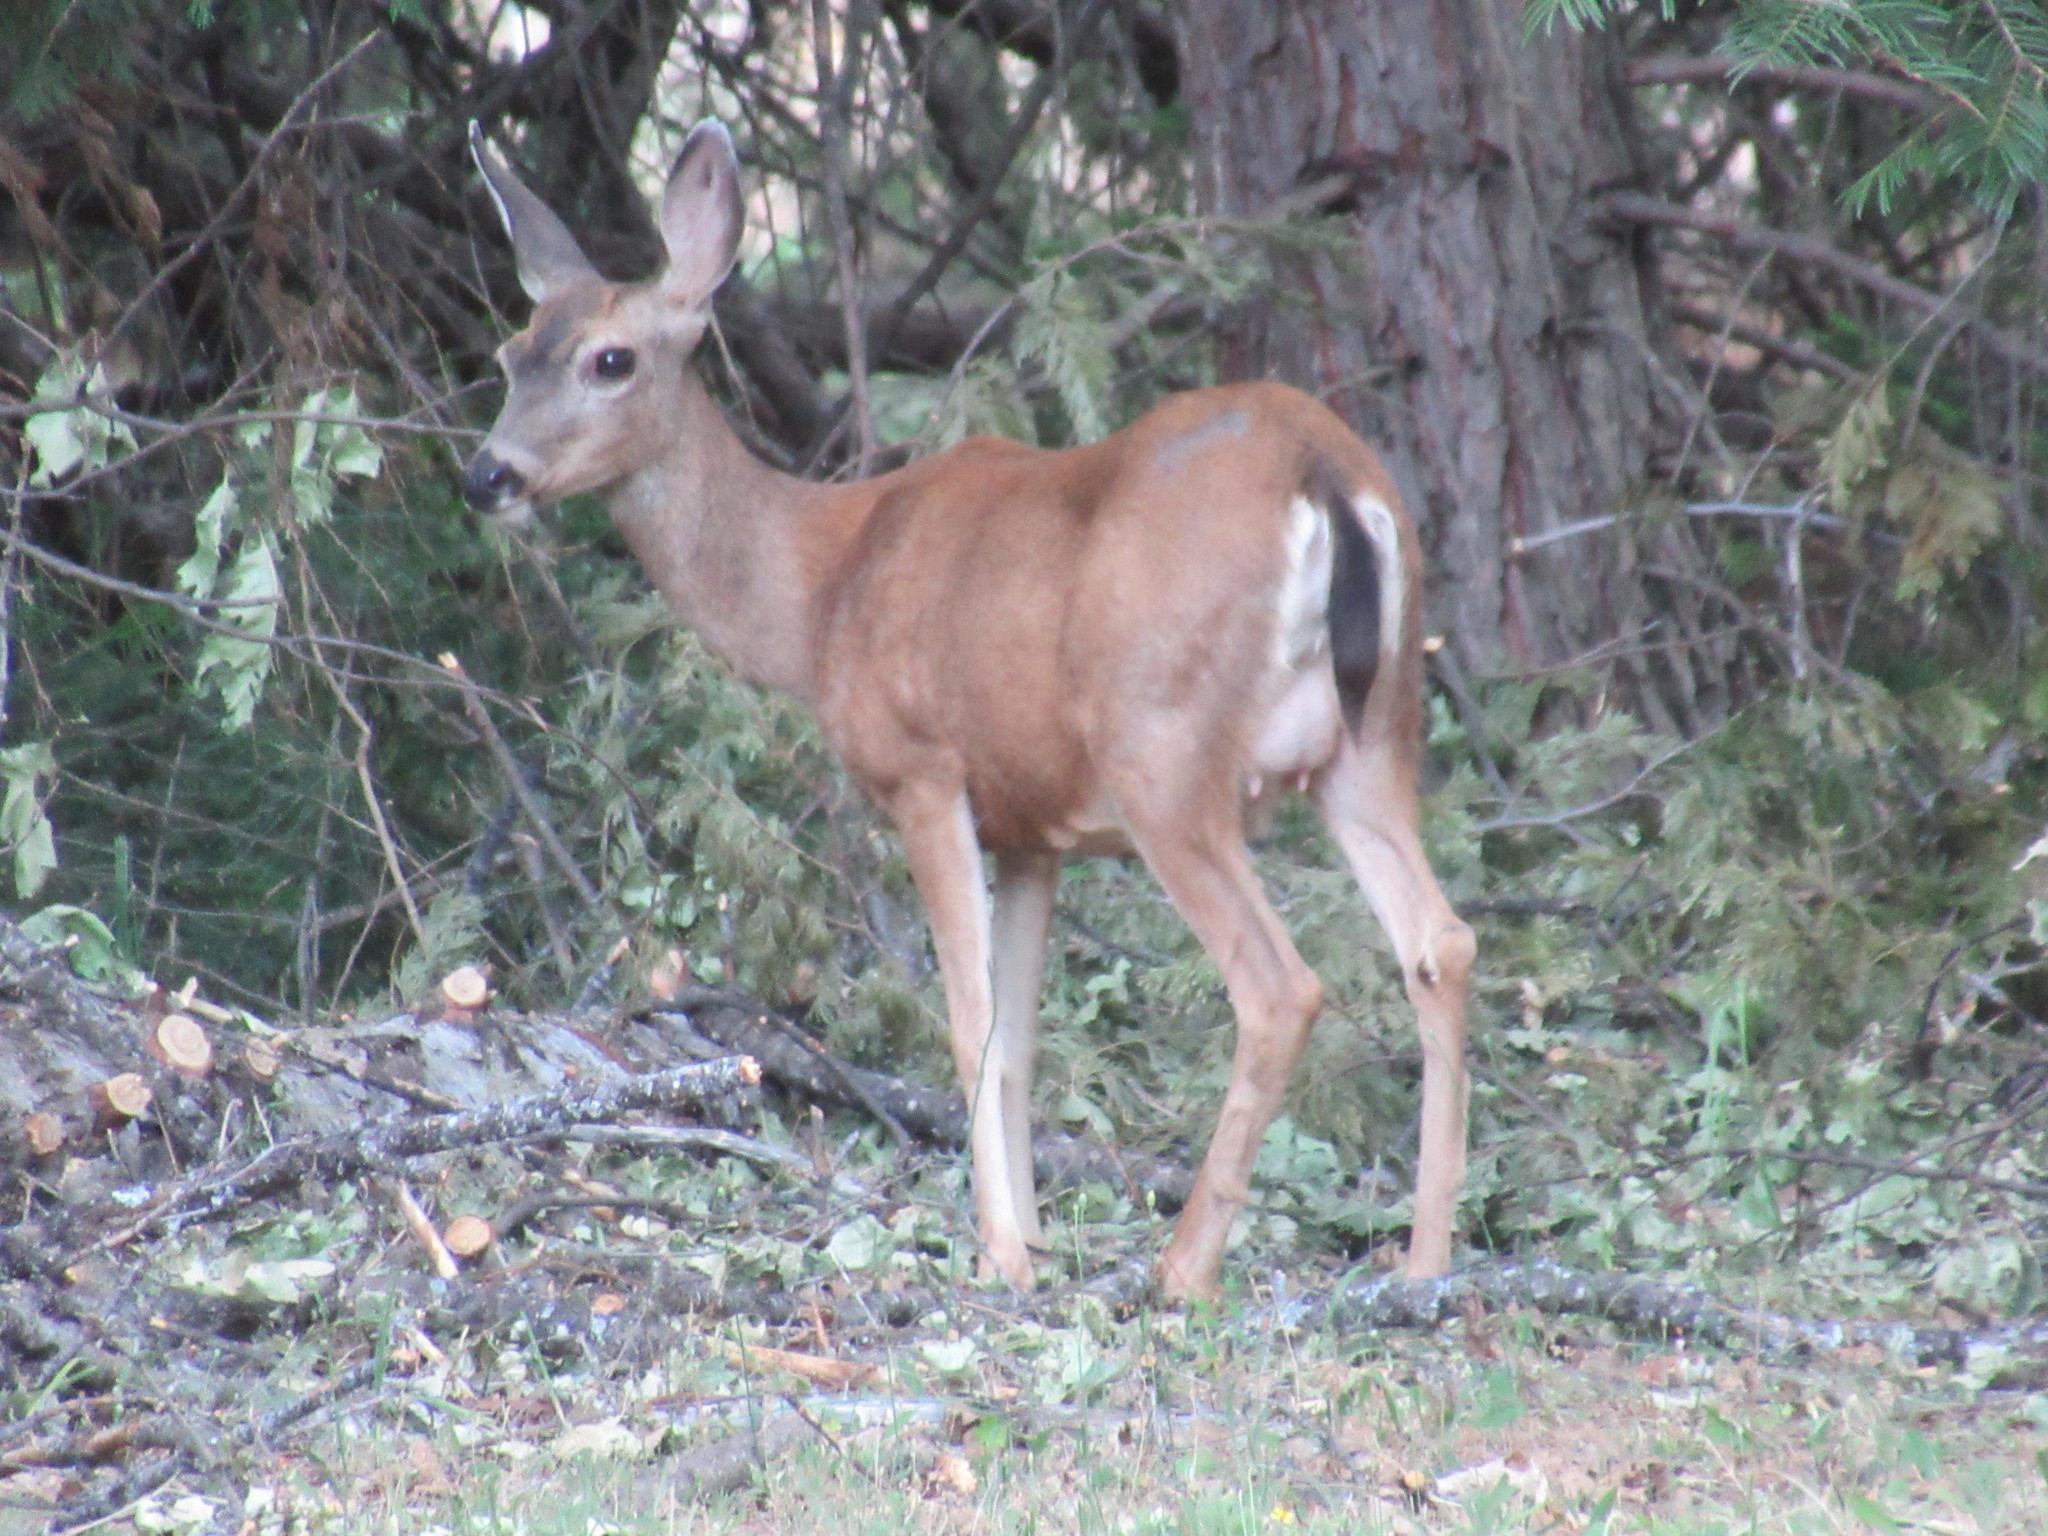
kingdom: Animalia
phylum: Chordata
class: Mammalia
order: Artiodactyla
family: Cervidae
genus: Odocoileus
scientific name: Odocoileus hemionus
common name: Mule deer
